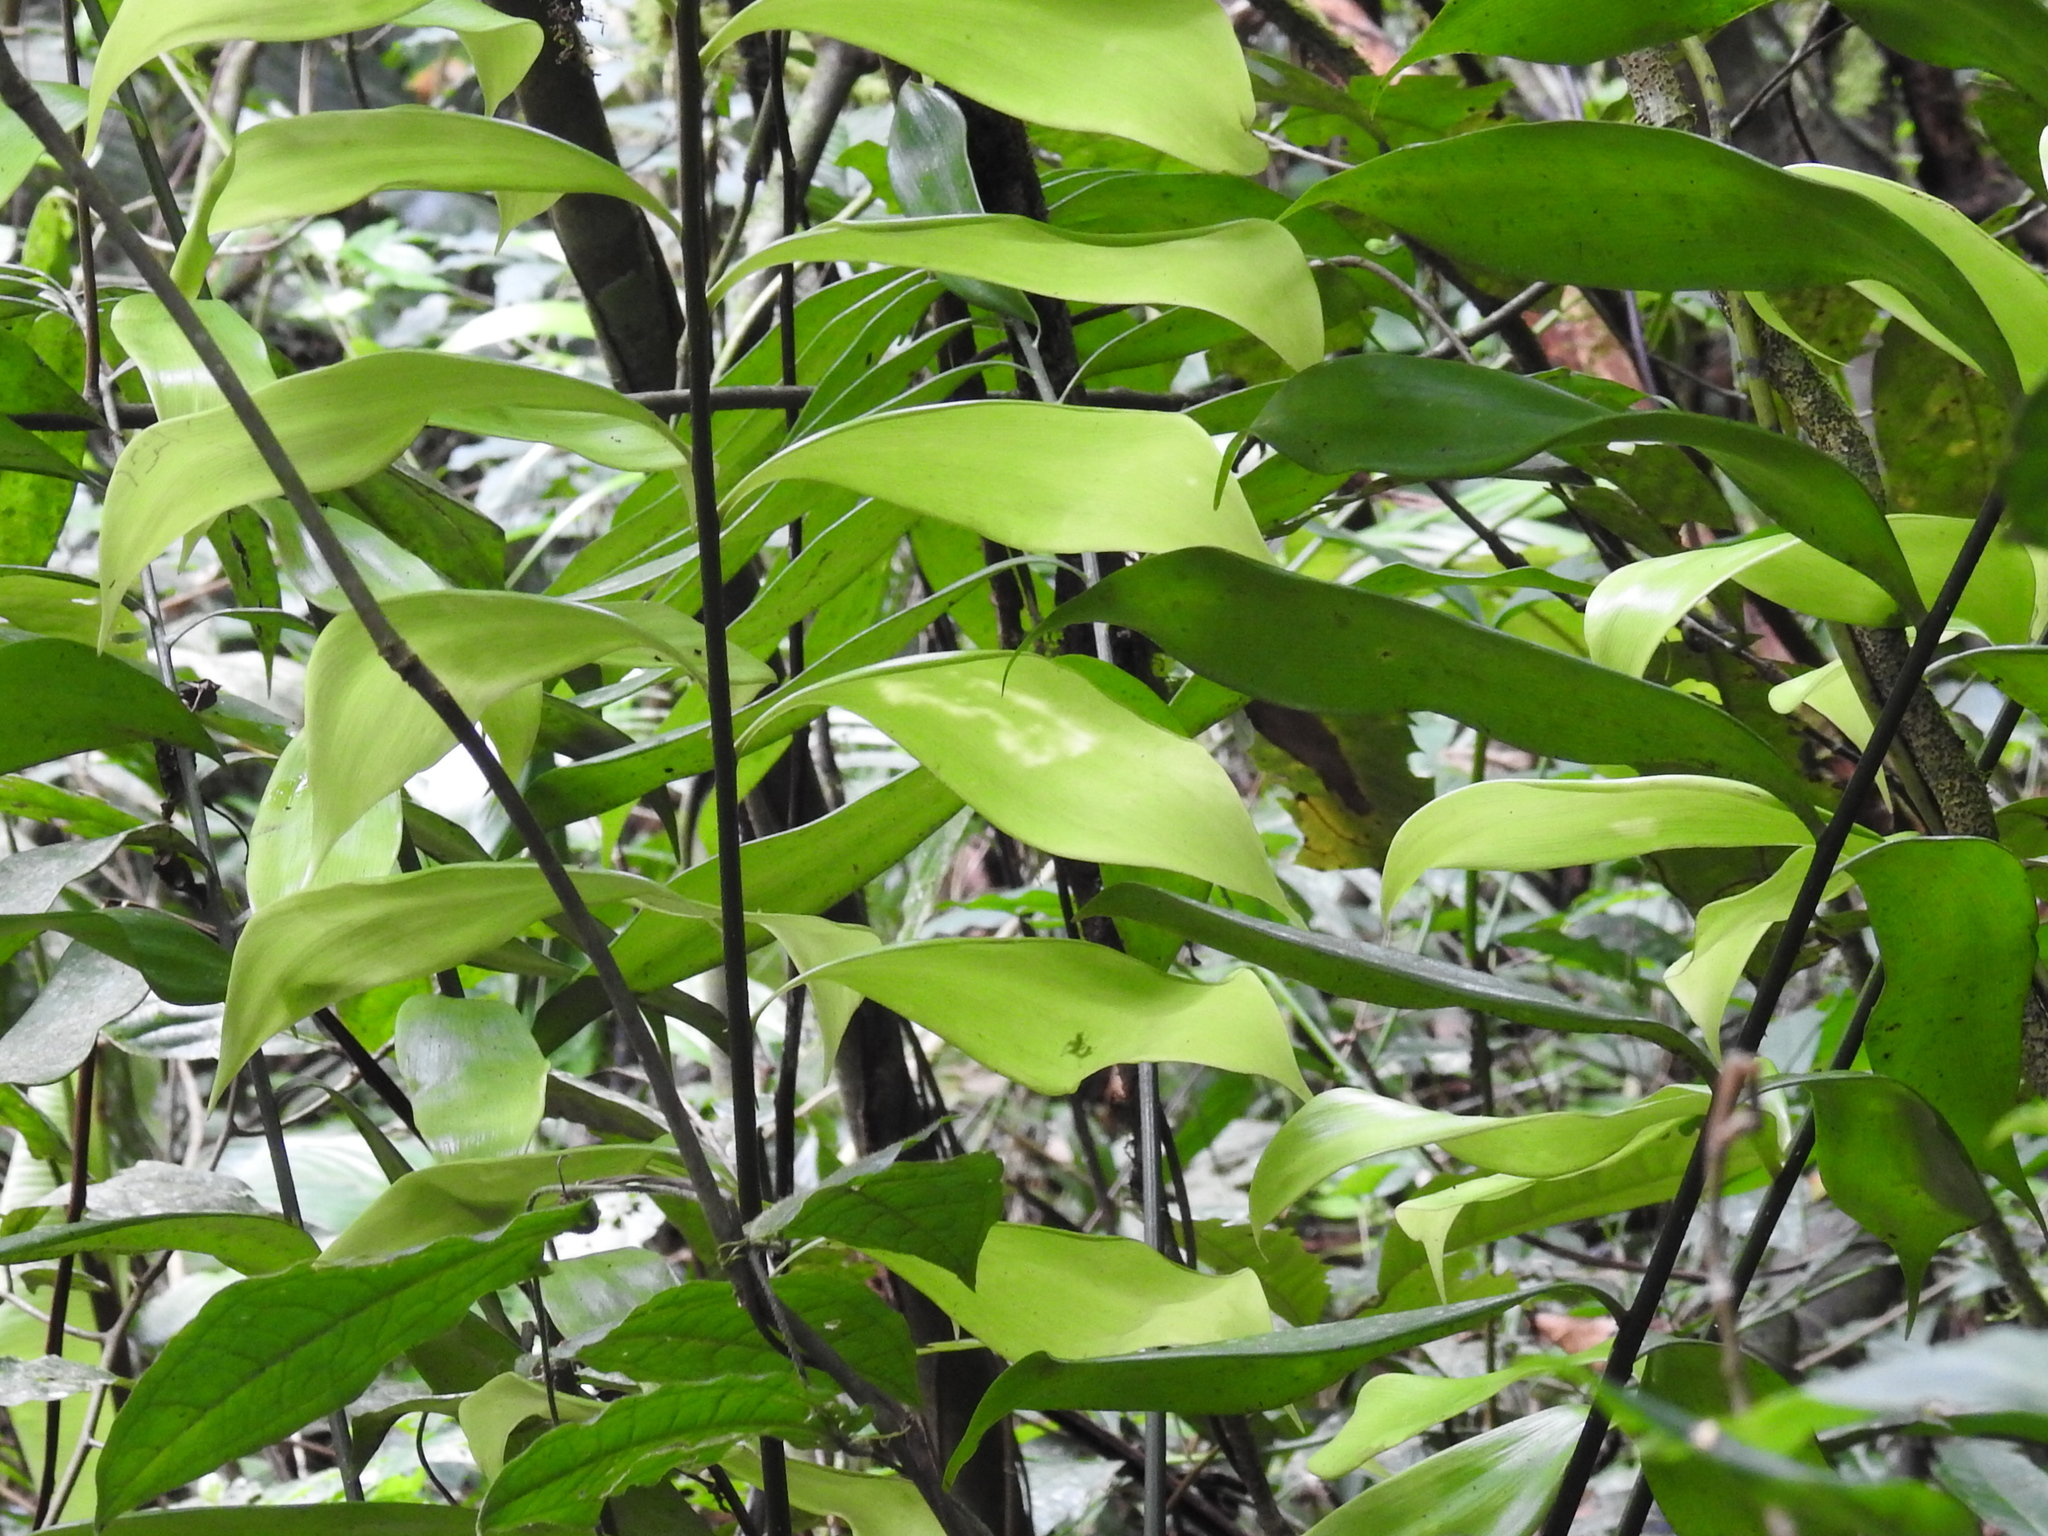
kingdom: Plantae
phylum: Tracheophyta
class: Cycadopsida
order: Cycadales
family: Zamiaceae
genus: Zamia
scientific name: Zamia pseudomonticola
